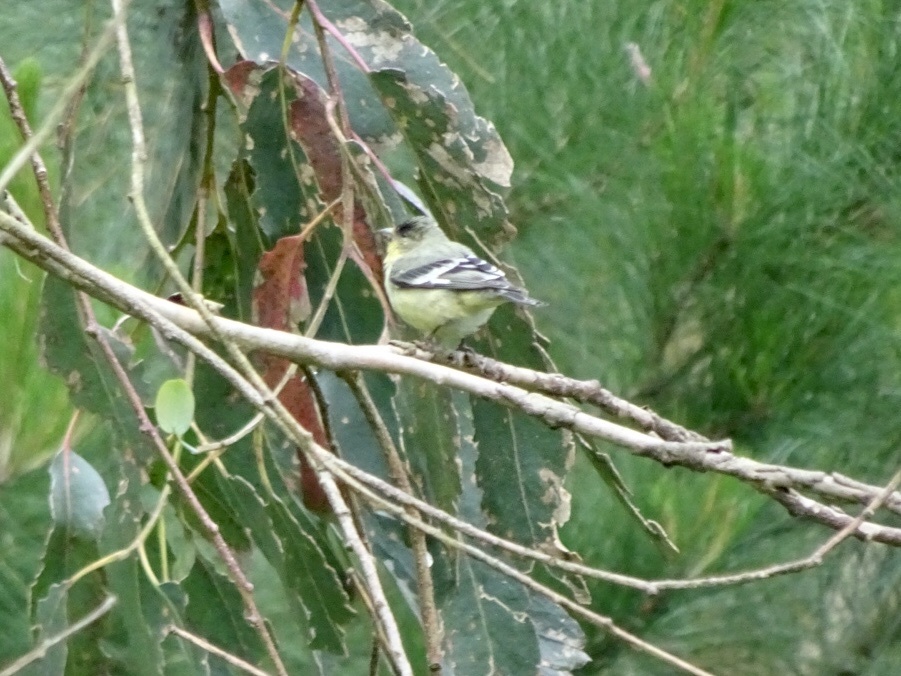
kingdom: Animalia
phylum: Chordata
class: Aves
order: Passeriformes
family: Fringillidae
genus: Spinus
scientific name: Spinus psaltria
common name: Lesser goldfinch
